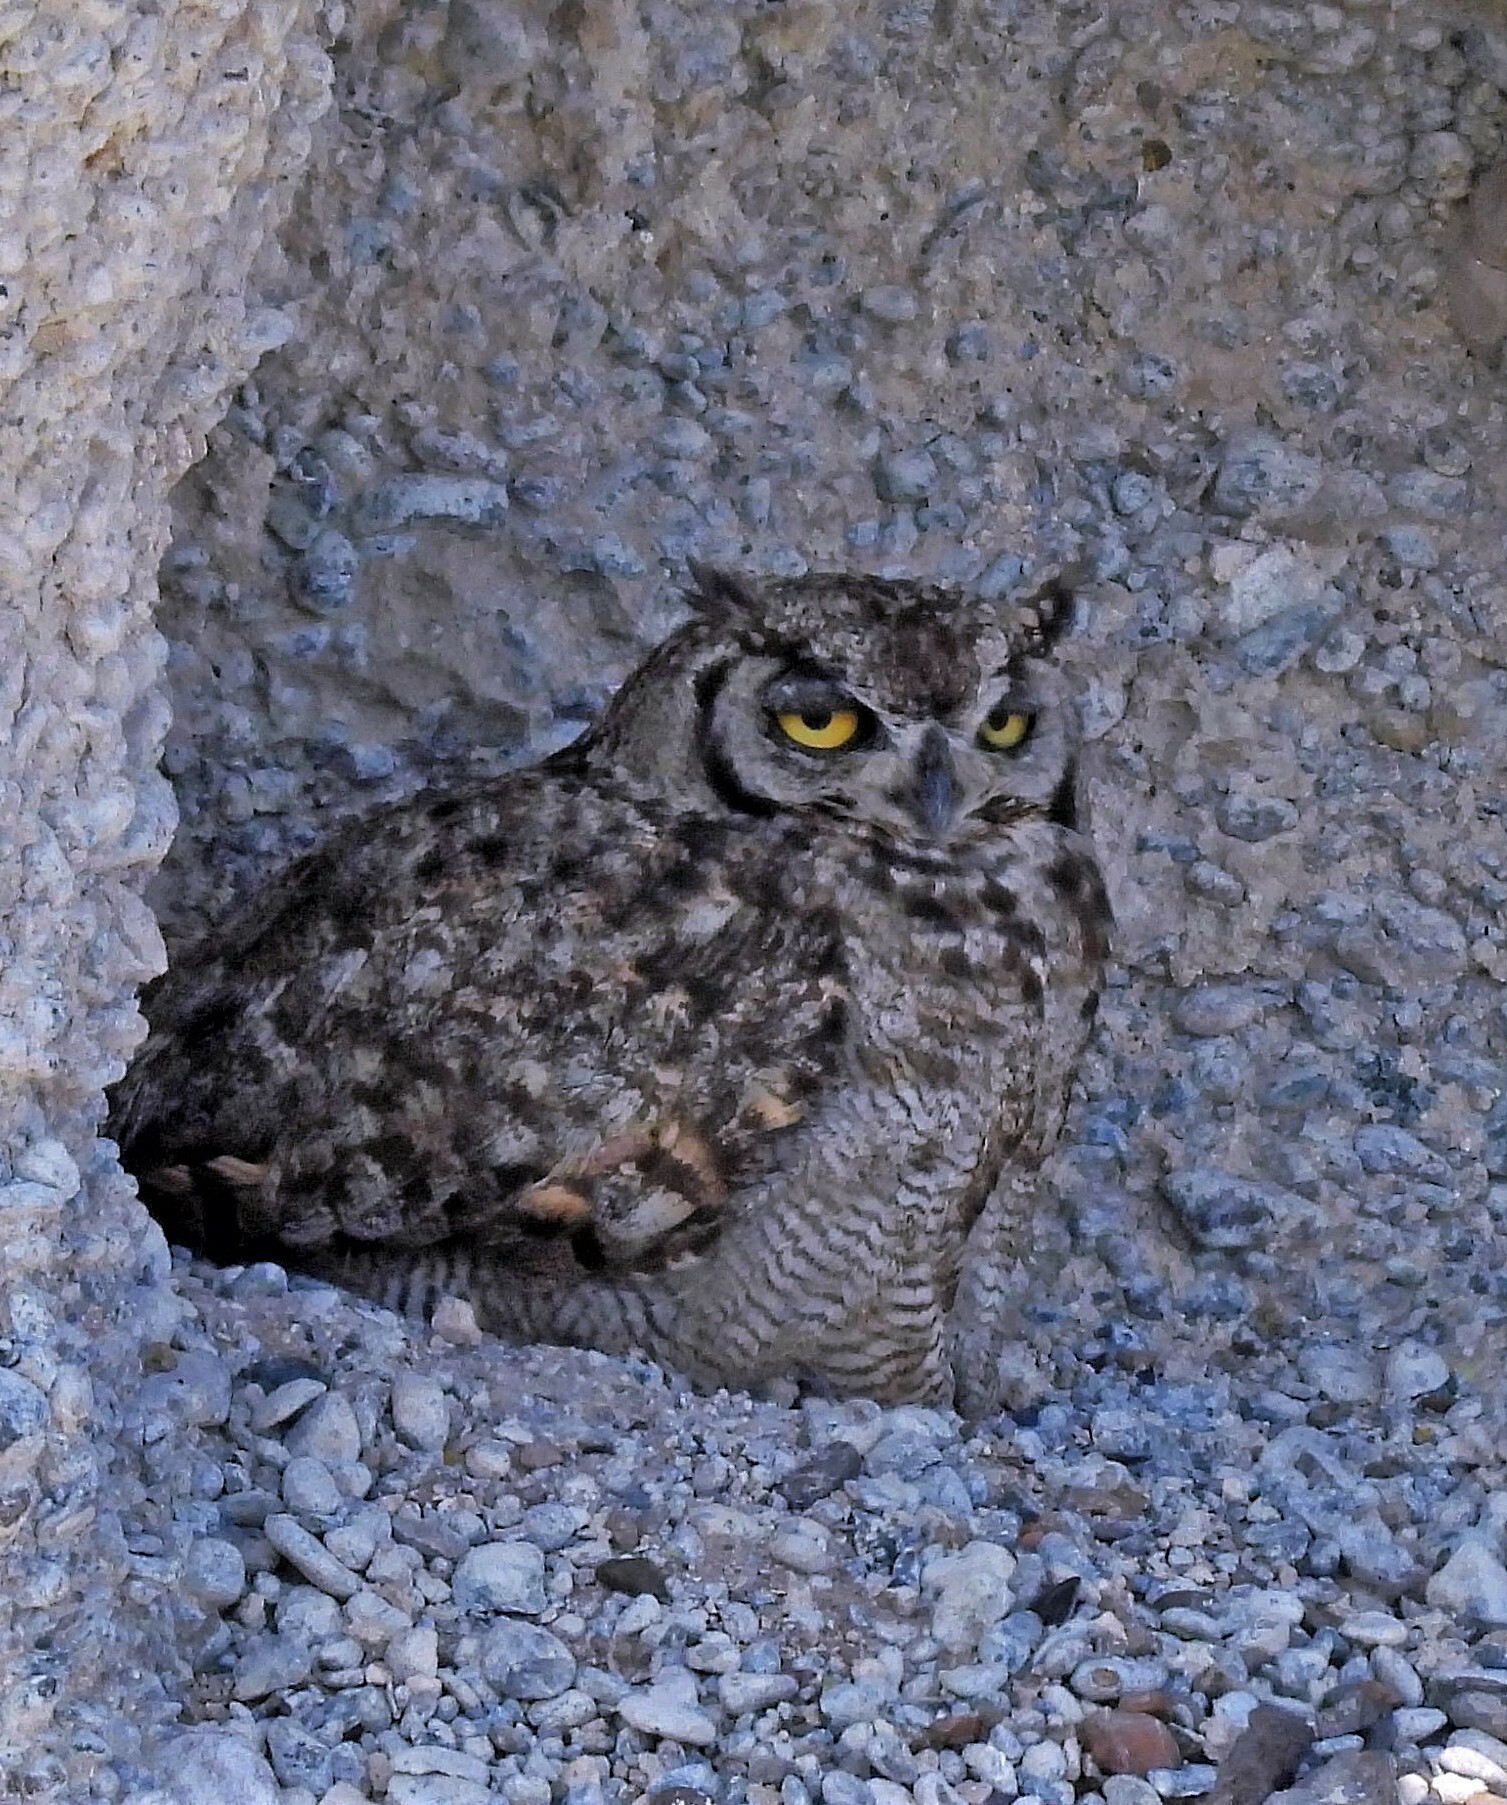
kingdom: Animalia
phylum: Chordata
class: Aves
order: Strigiformes
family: Strigidae
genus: Bubo
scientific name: Bubo magellanicus
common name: Lesser horned owl
